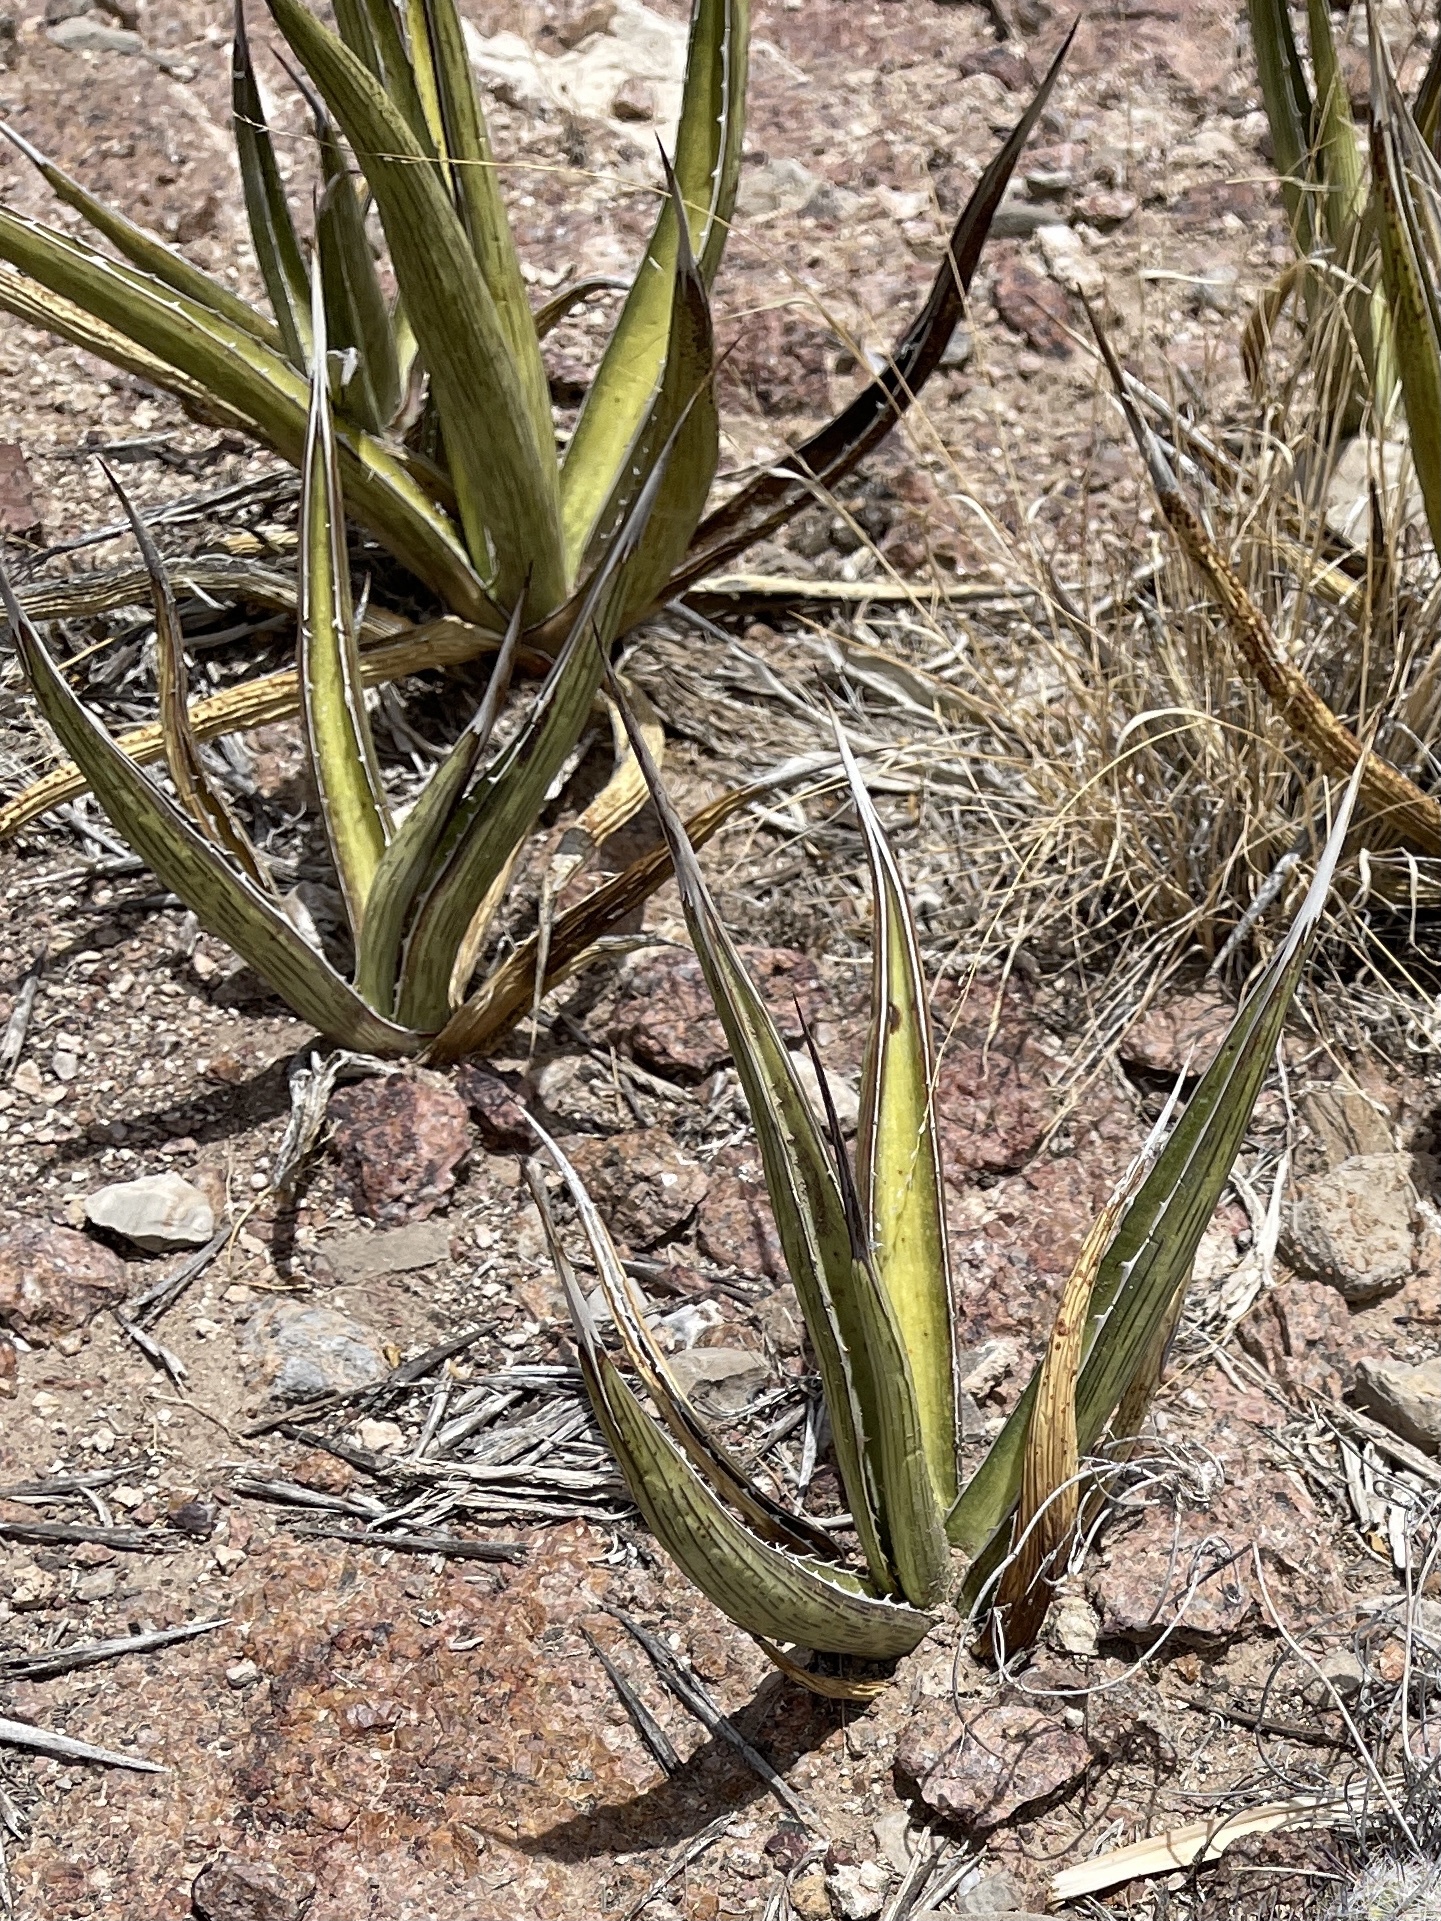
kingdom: Plantae
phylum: Tracheophyta
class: Liliopsida
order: Asparagales
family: Asparagaceae
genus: Agave
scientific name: Agave lechuguilla
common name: Lecheguilla agave
